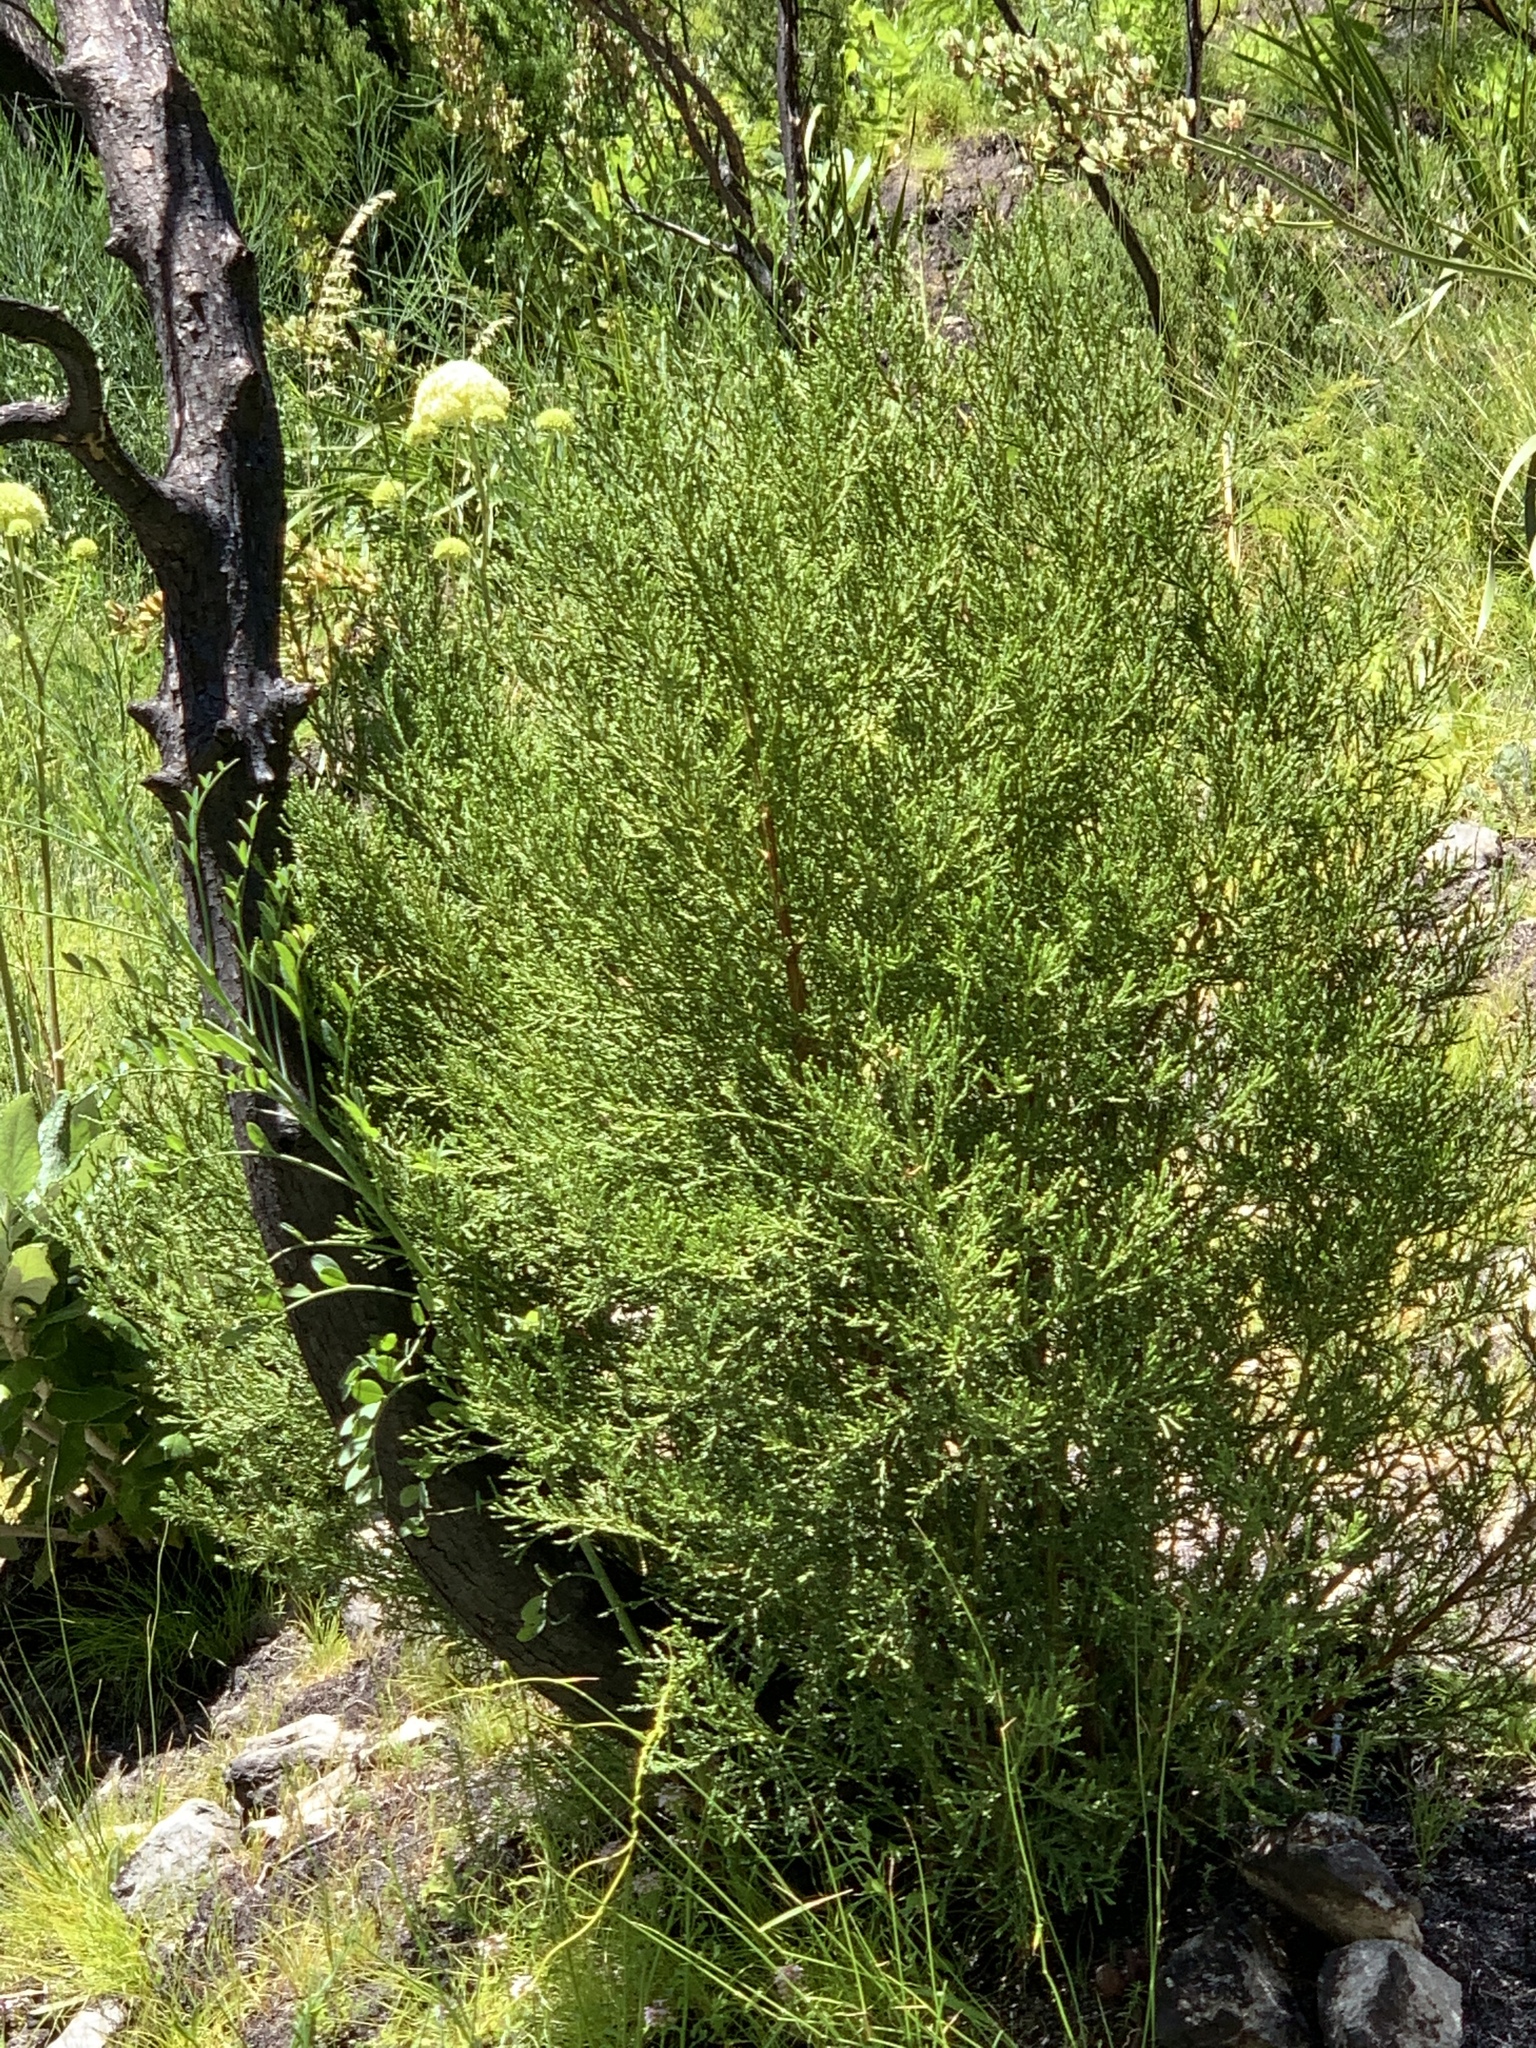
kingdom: Plantae
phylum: Tracheophyta
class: Pinopsida
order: Pinales
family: Cupressaceae
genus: Widdringtonia
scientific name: Widdringtonia nodiflora
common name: Cape cypress
